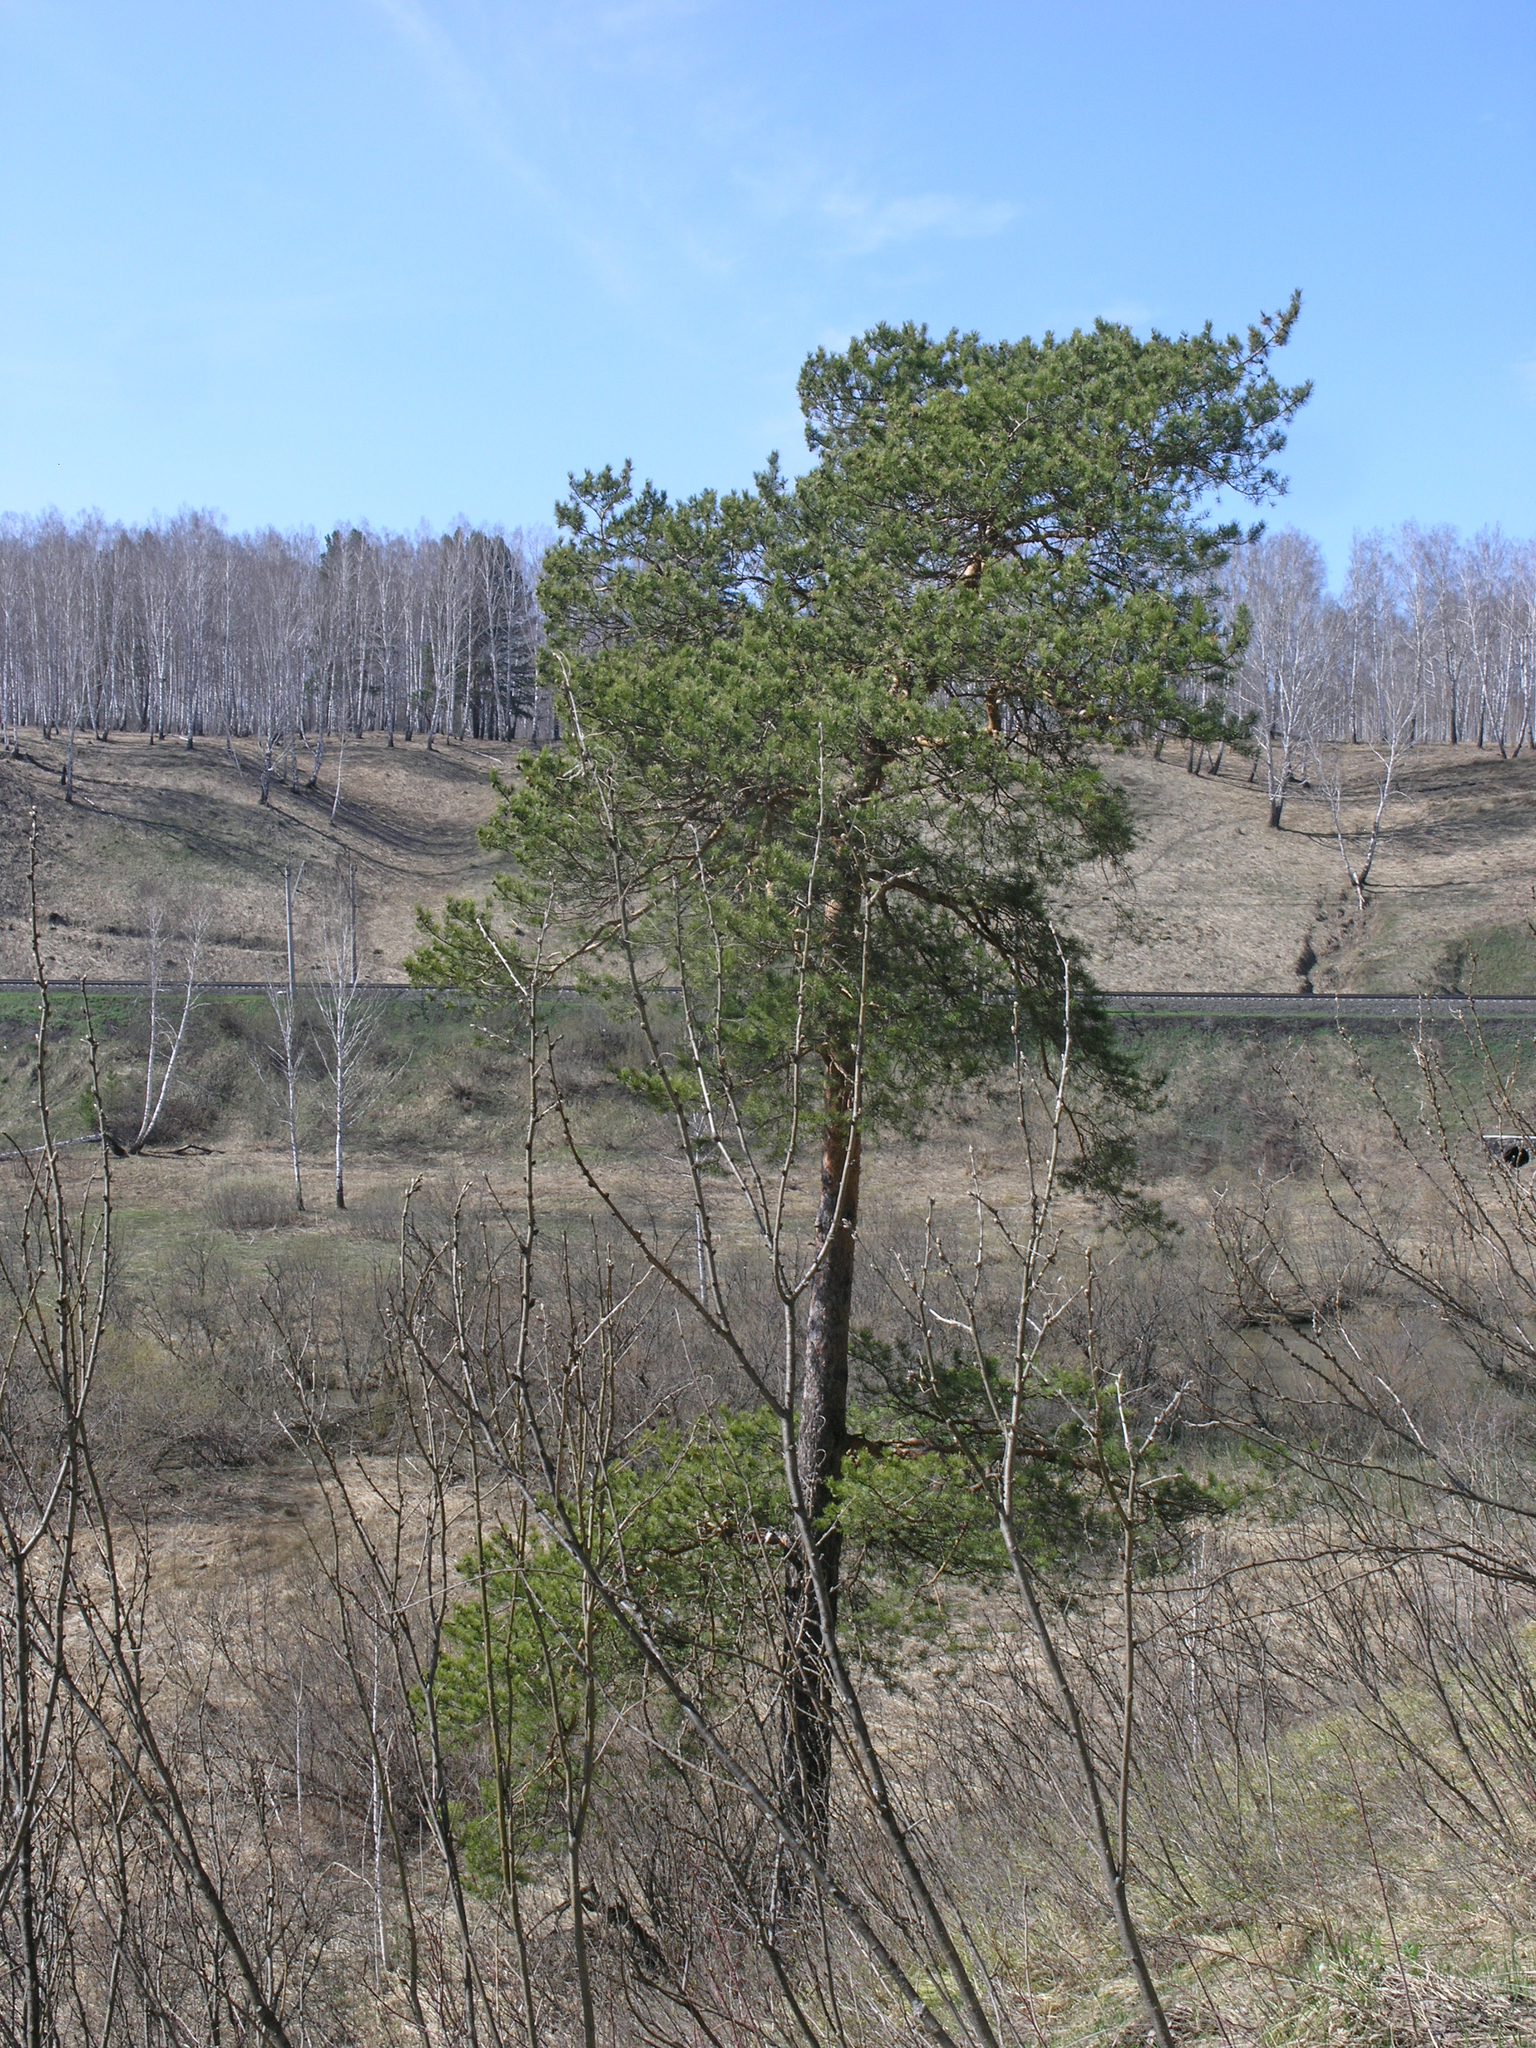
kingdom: Plantae
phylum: Tracheophyta
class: Pinopsida
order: Pinales
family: Pinaceae
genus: Pinus
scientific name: Pinus sylvestris
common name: Scots pine
